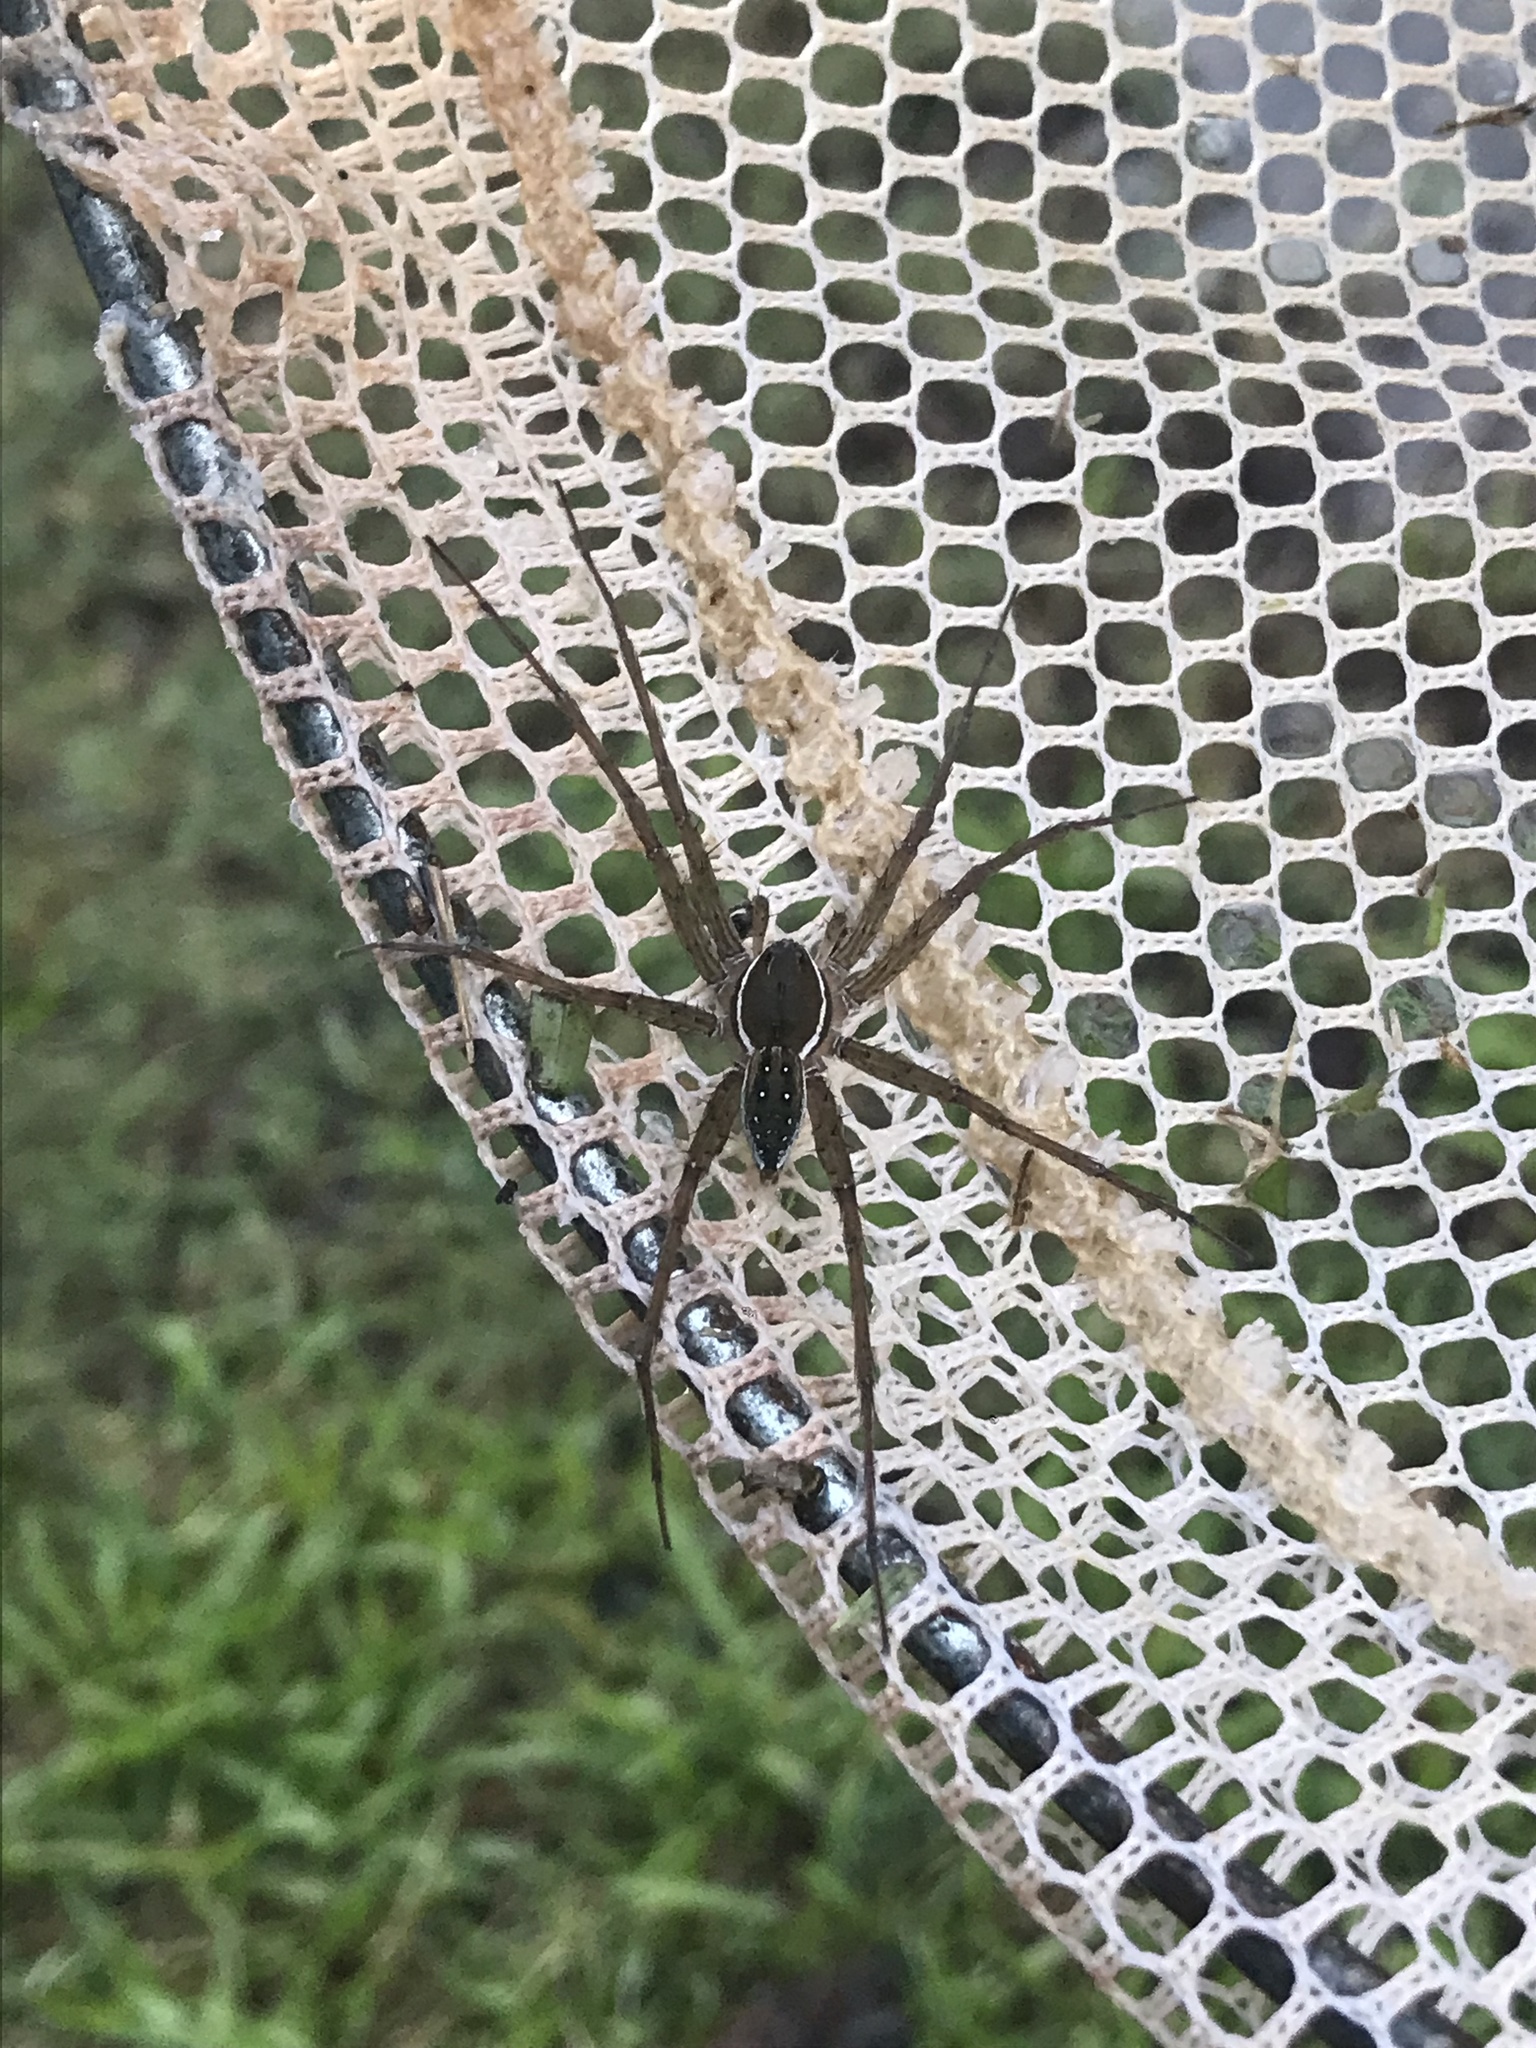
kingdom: Animalia
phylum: Arthropoda
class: Arachnida
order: Araneae
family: Pisauridae
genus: Dolomedes
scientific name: Dolomedes triton
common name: Six-spotted fishing spider
